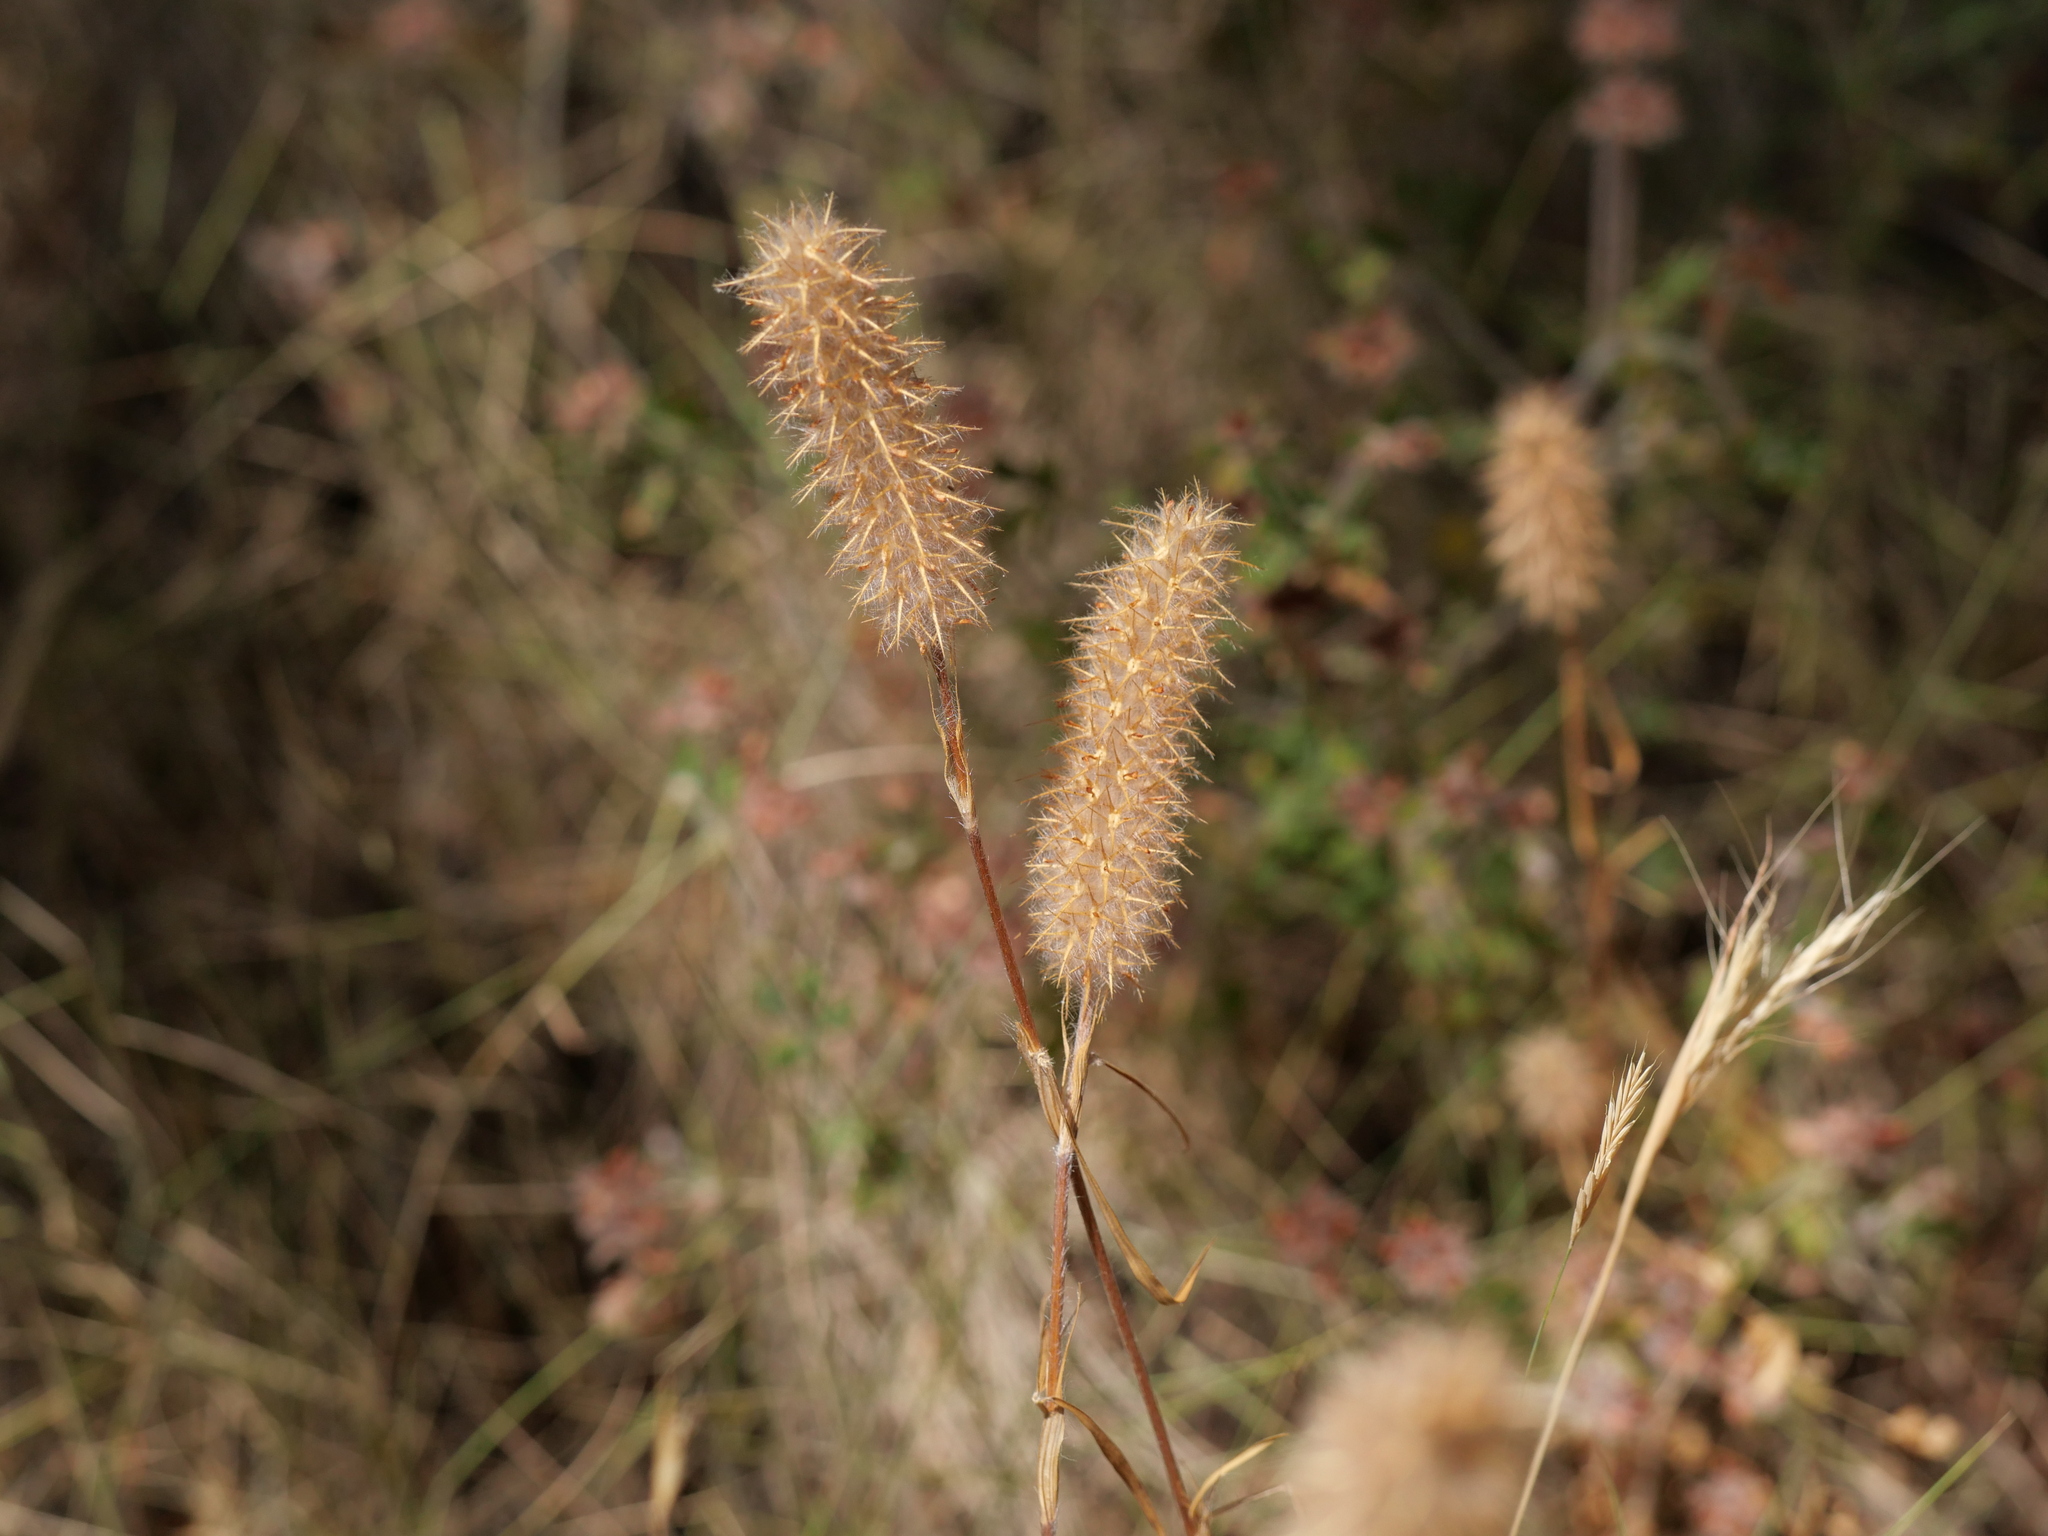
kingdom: Plantae
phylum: Tracheophyta
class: Magnoliopsida
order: Fabales
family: Fabaceae
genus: Trifolium
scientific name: Trifolium angustifolium
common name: Narrow clover
